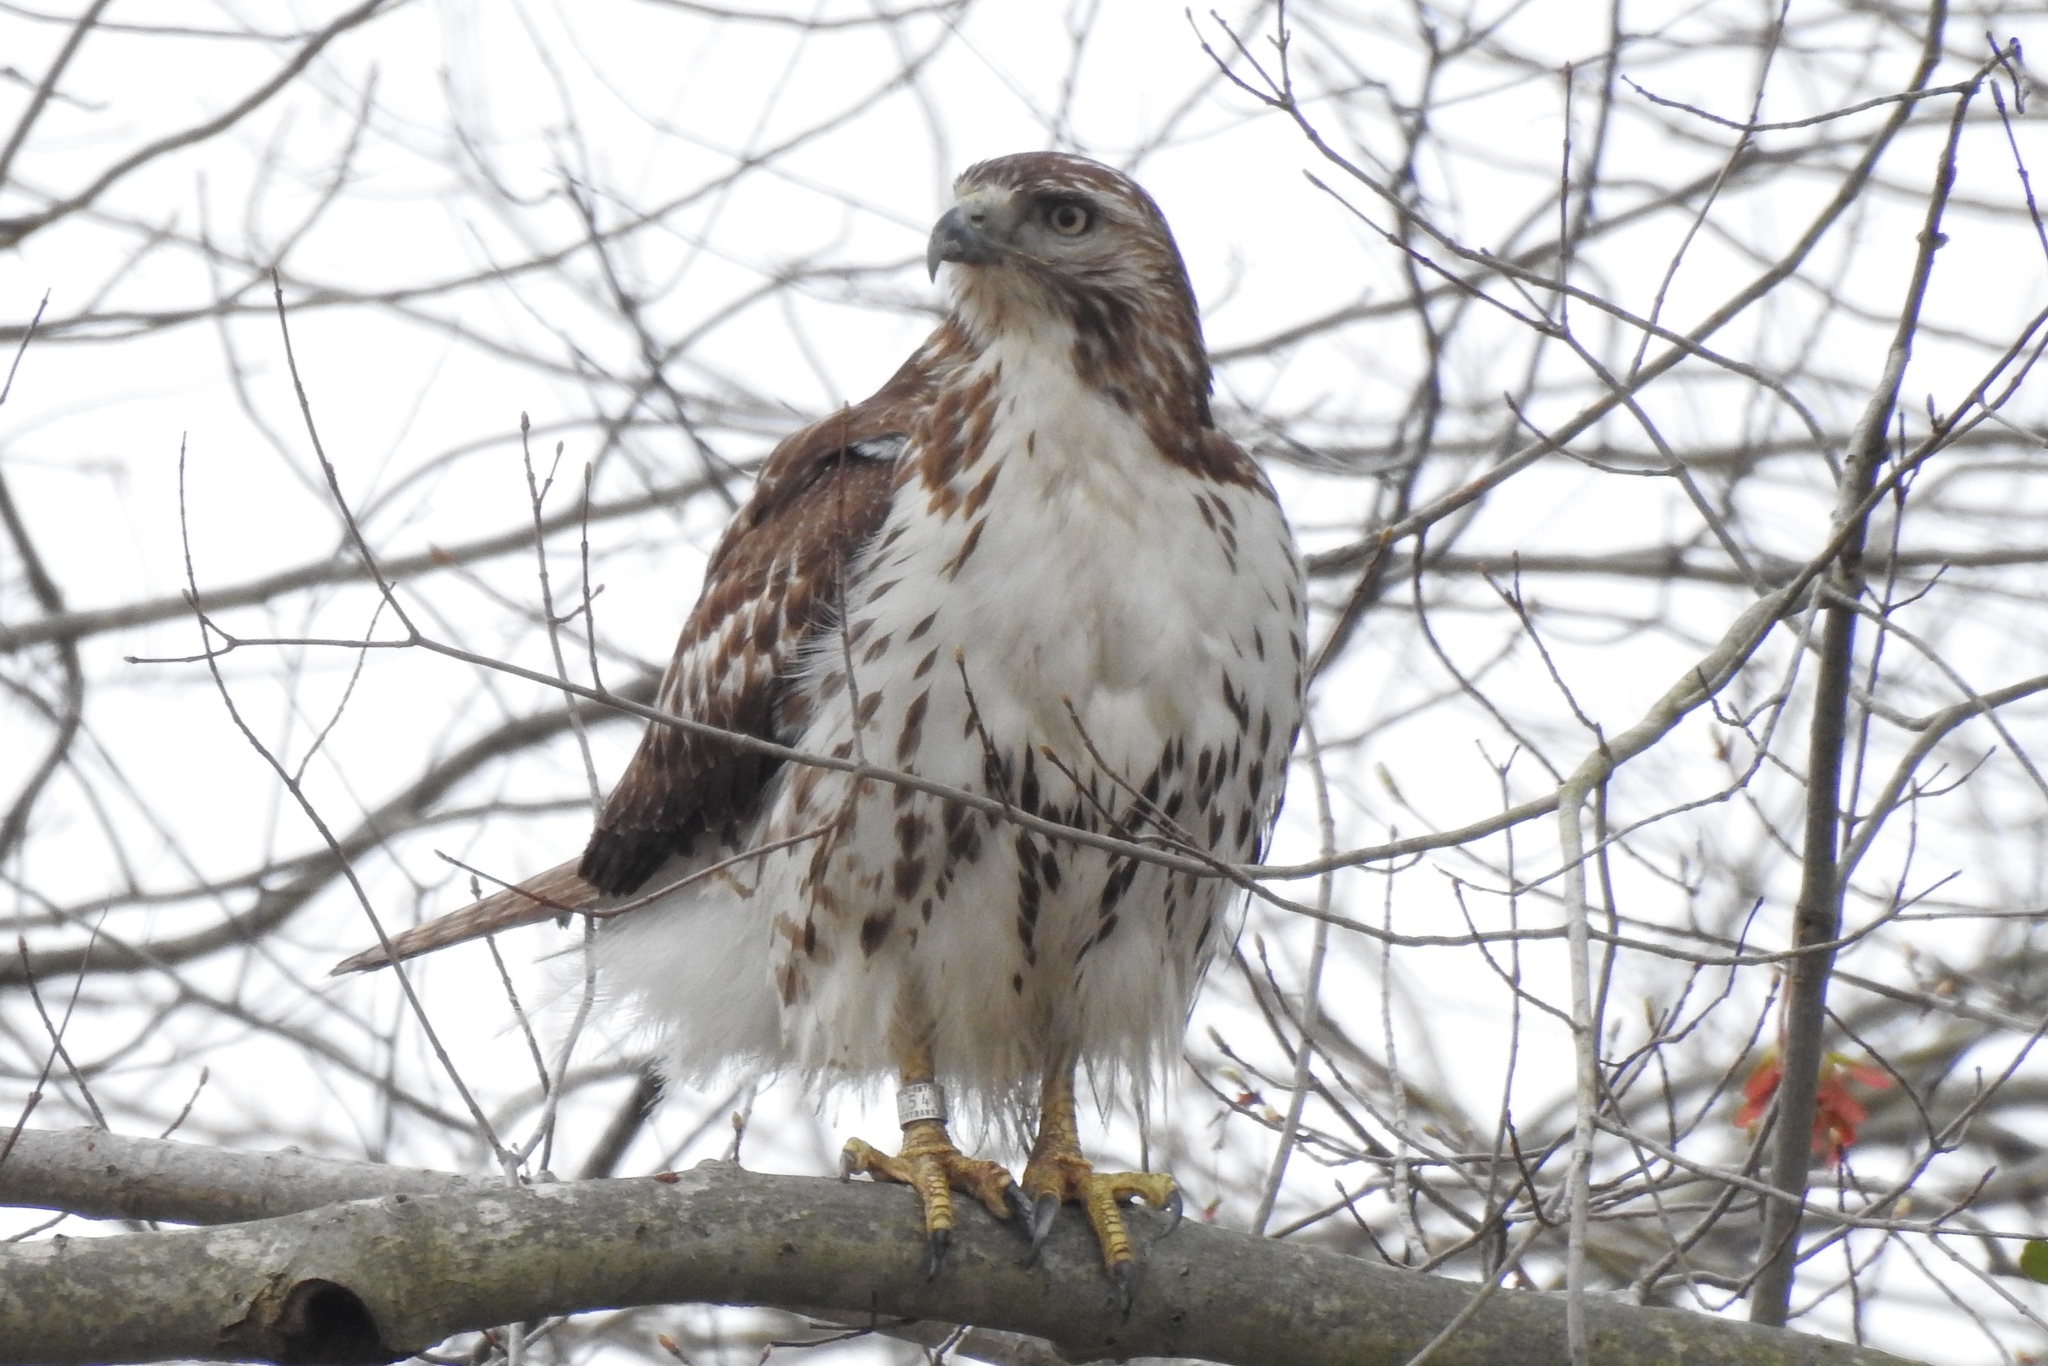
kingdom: Animalia
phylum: Chordata
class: Aves
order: Accipitriformes
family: Accipitridae
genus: Buteo
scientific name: Buteo jamaicensis
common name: Red-tailed hawk
